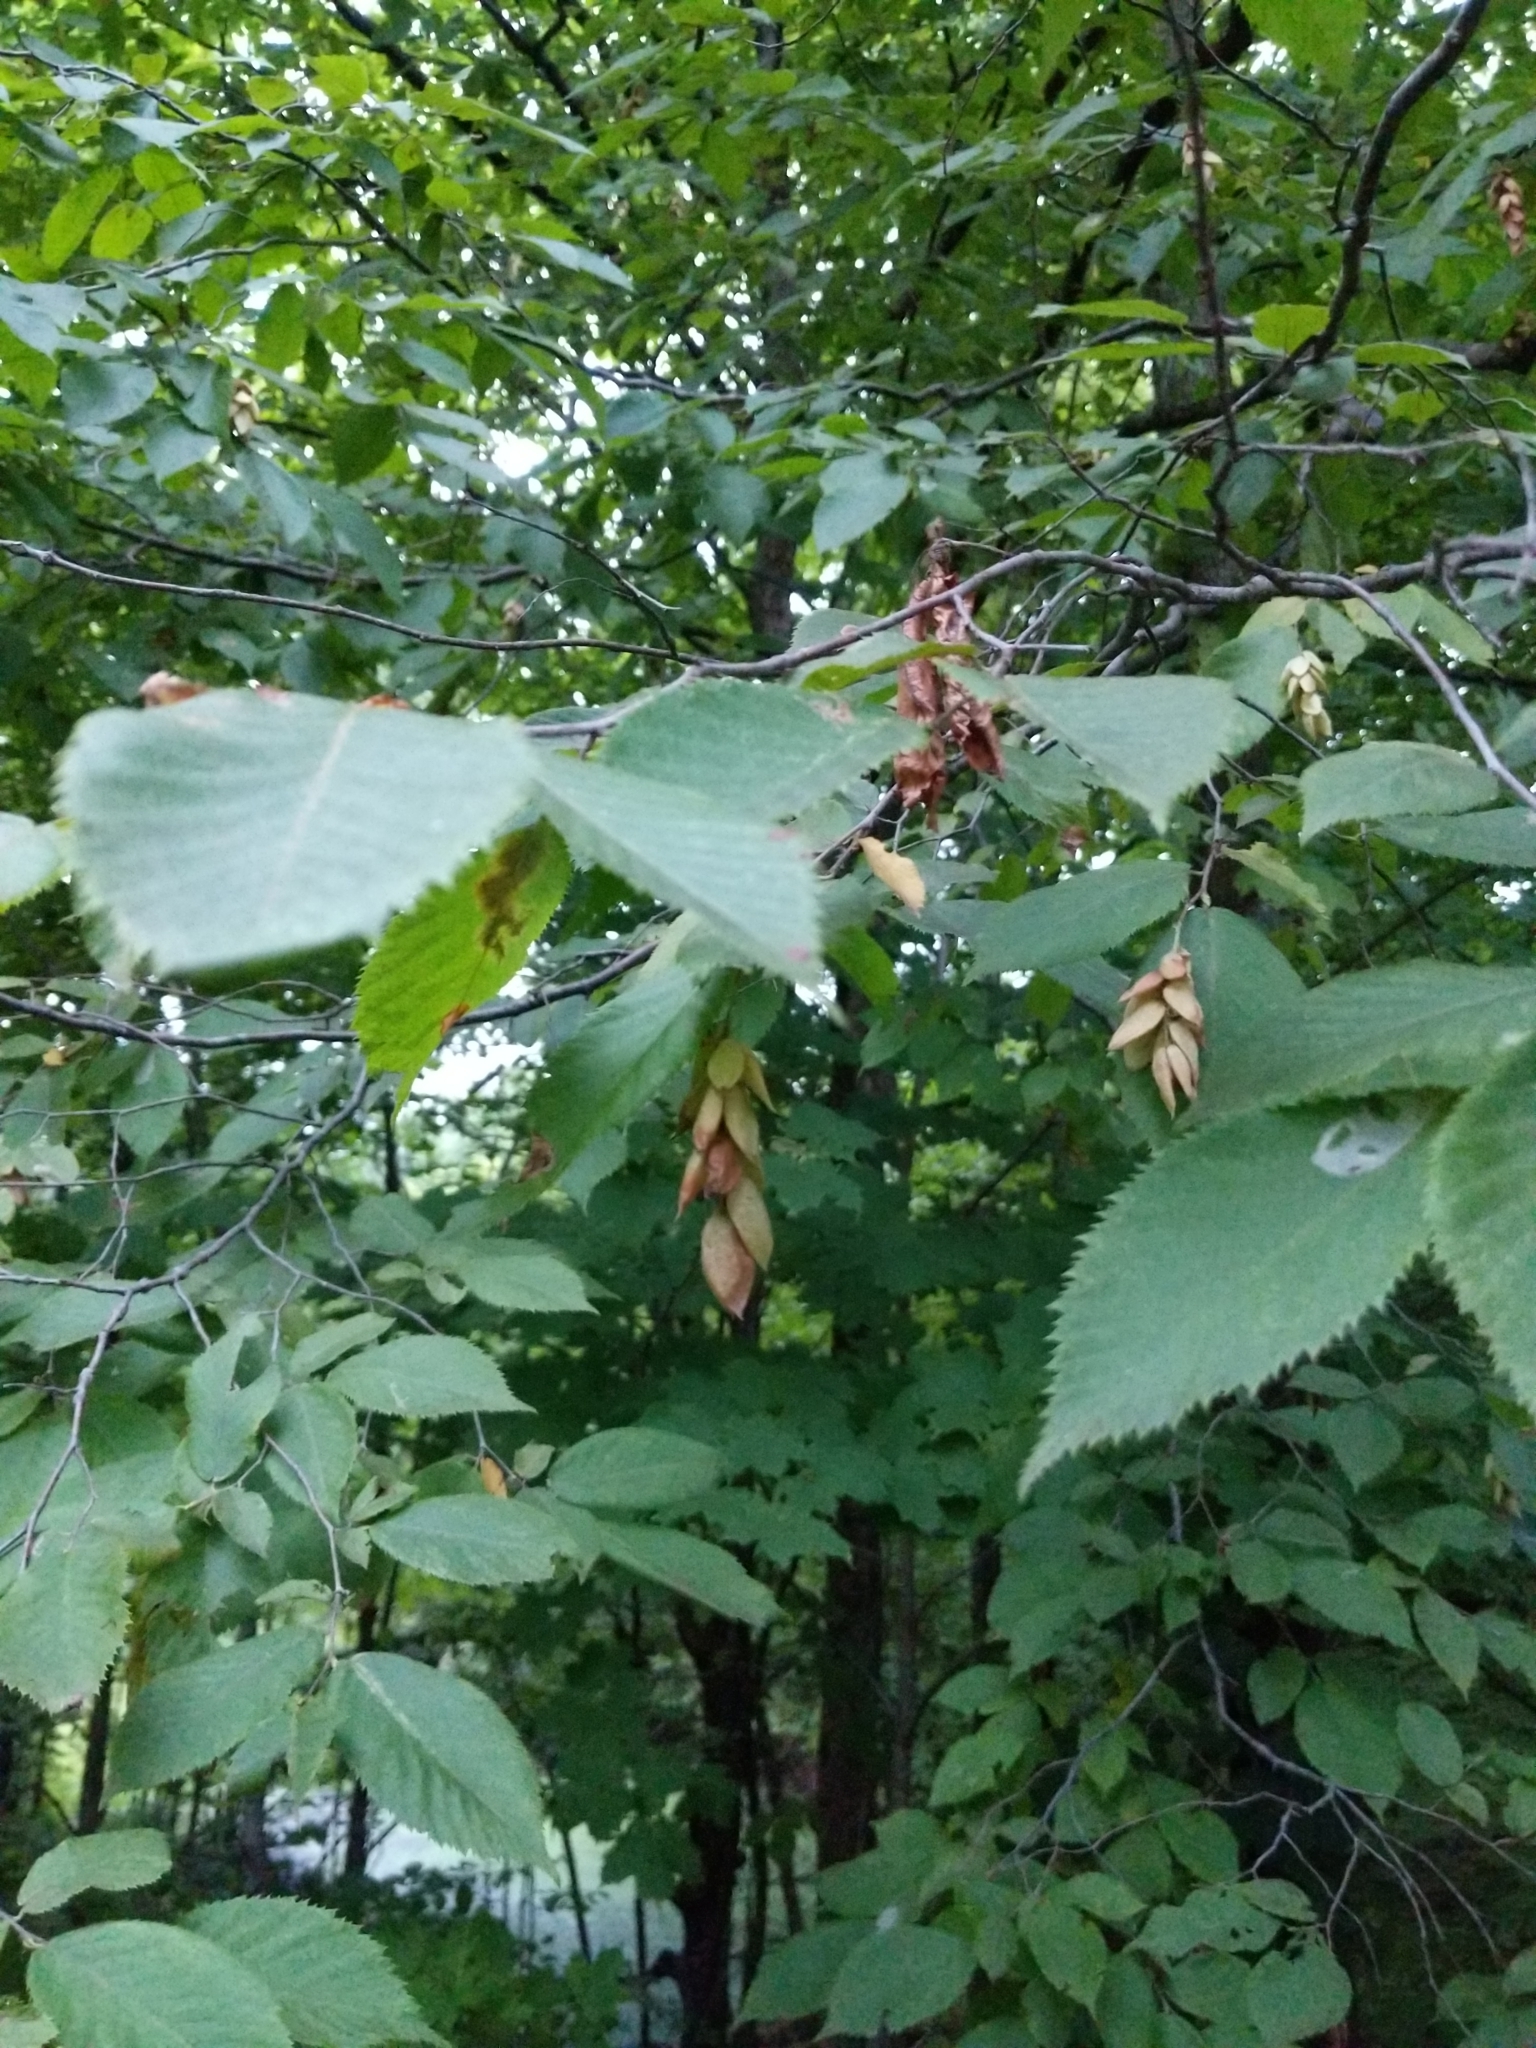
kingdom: Plantae
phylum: Tracheophyta
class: Magnoliopsida
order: Fagales
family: Betulaceae
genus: Ostrya
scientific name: Ostrya virginiana
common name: Ironwood
